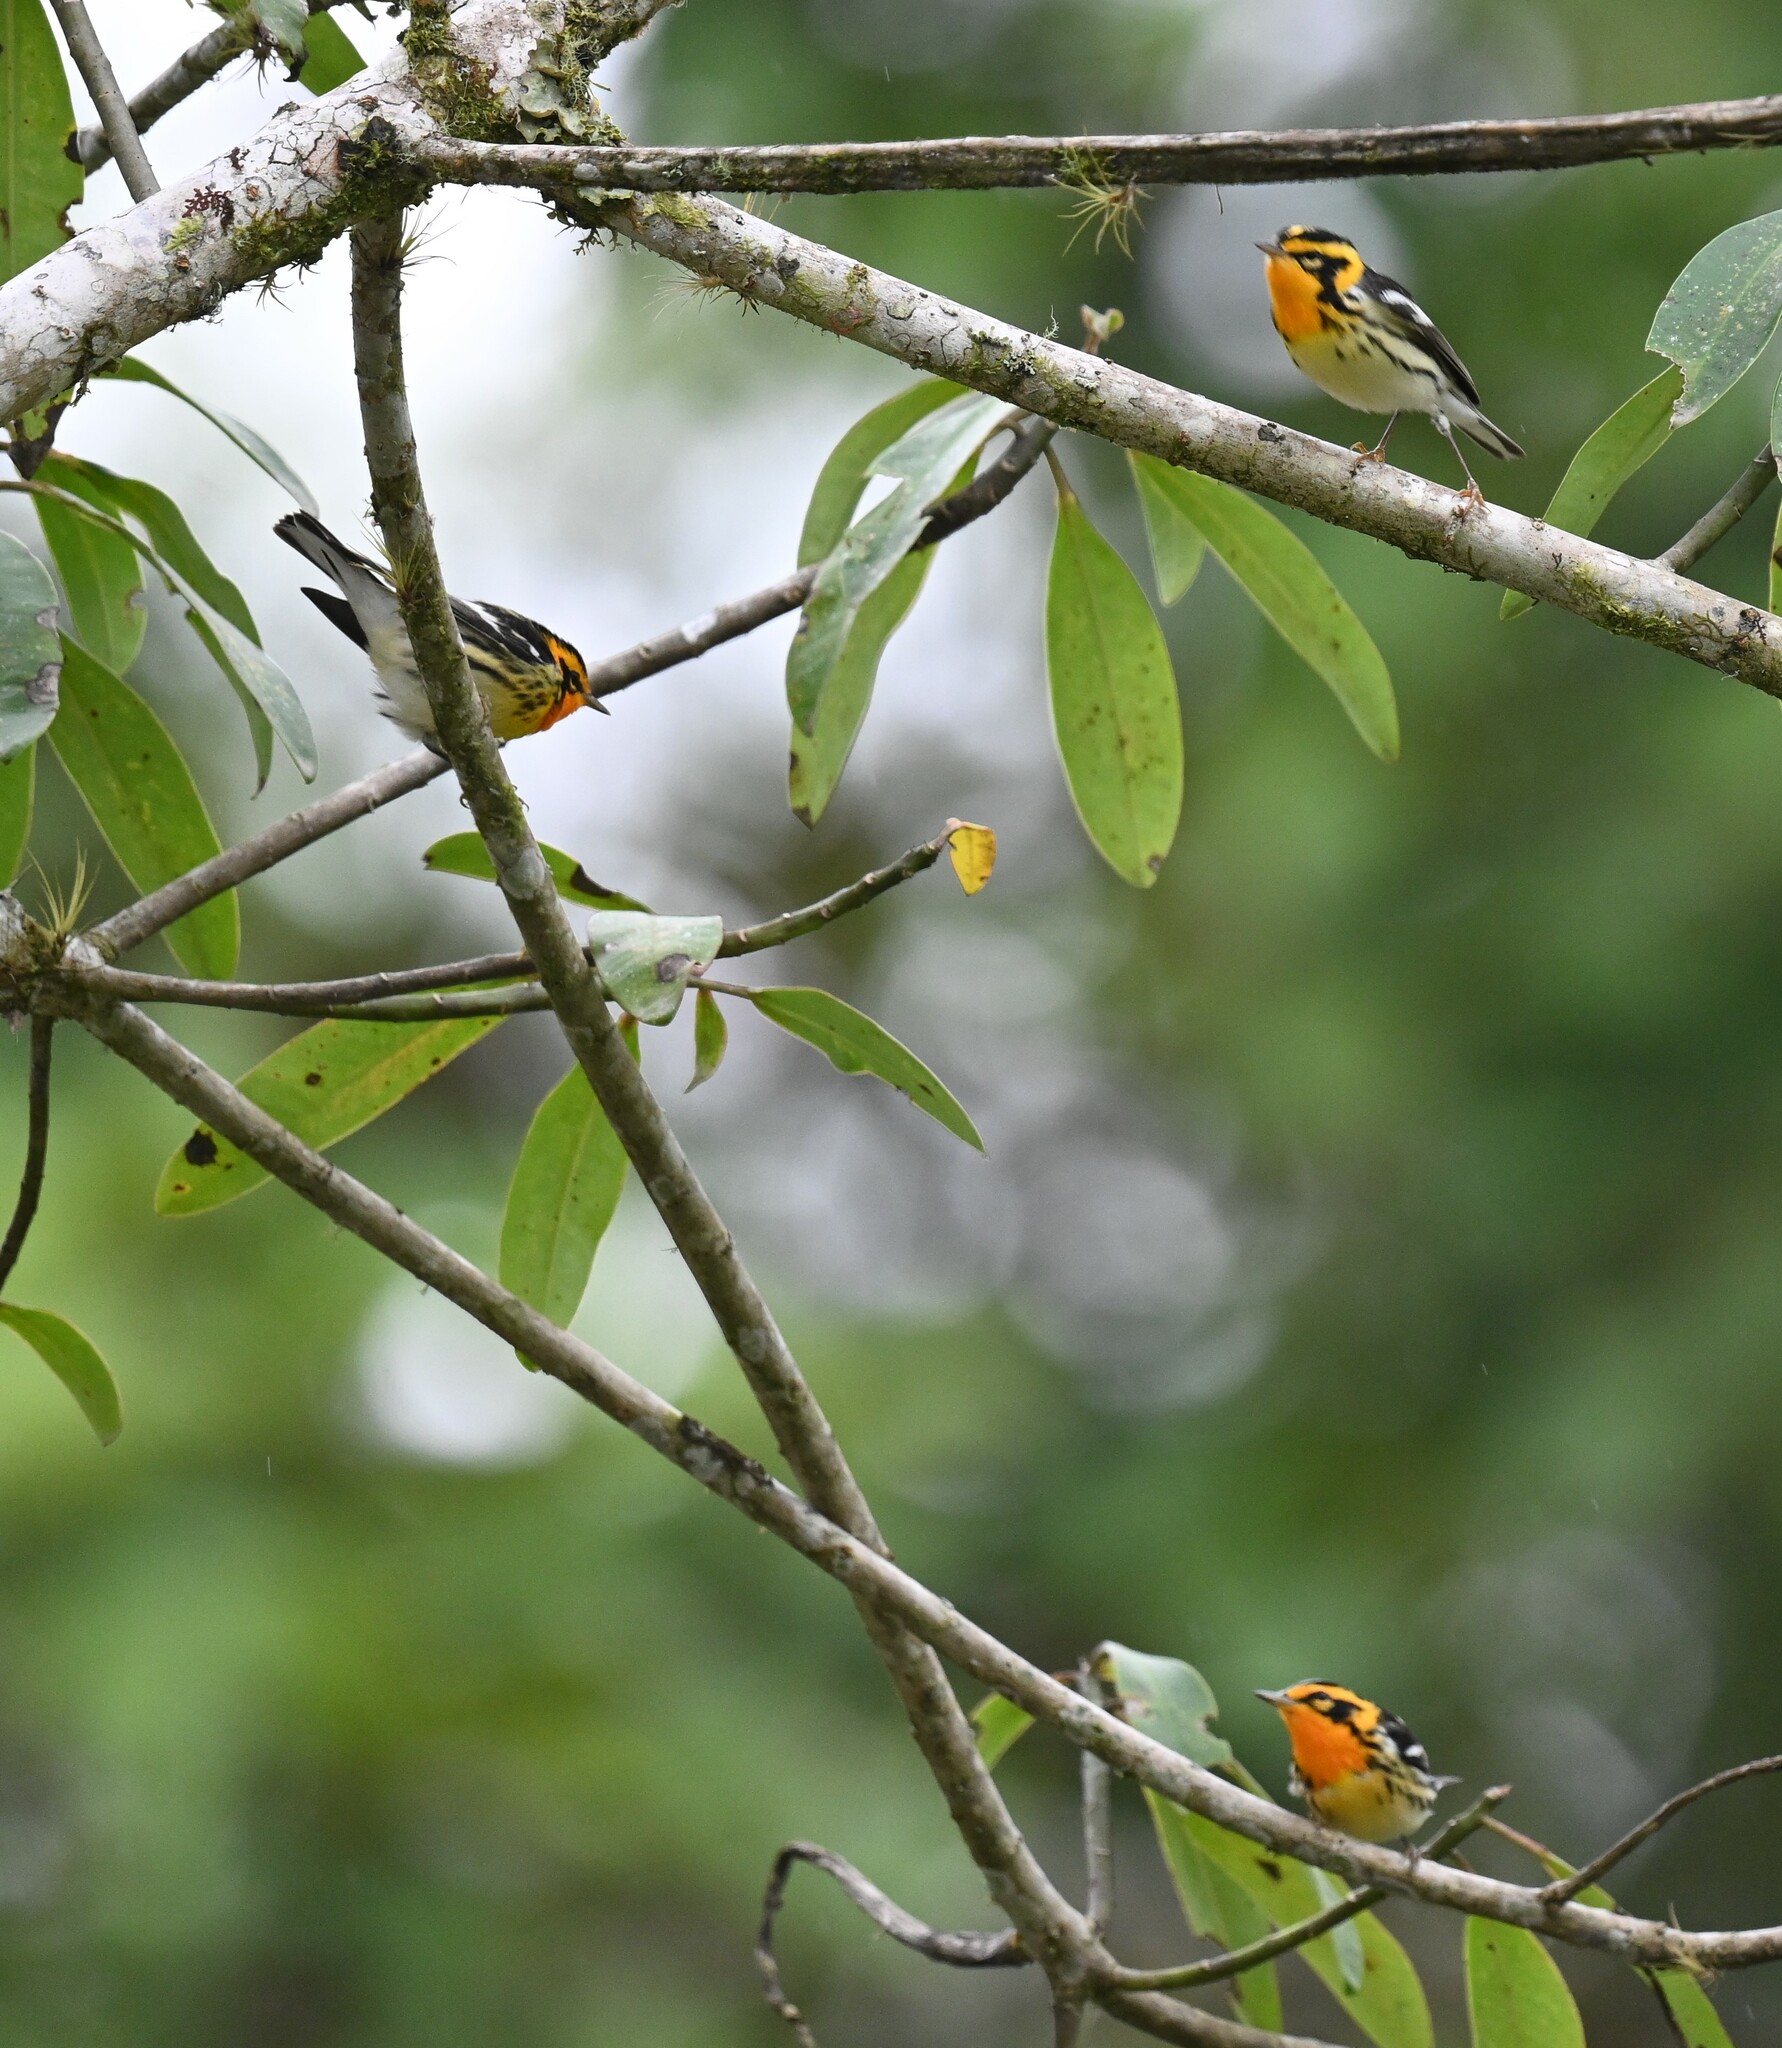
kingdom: Animalia
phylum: Chordata
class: Aves
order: Passeriformes
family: Parulidae
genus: Setophaga
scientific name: Setophaga fusca
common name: Blackburnian warbler
